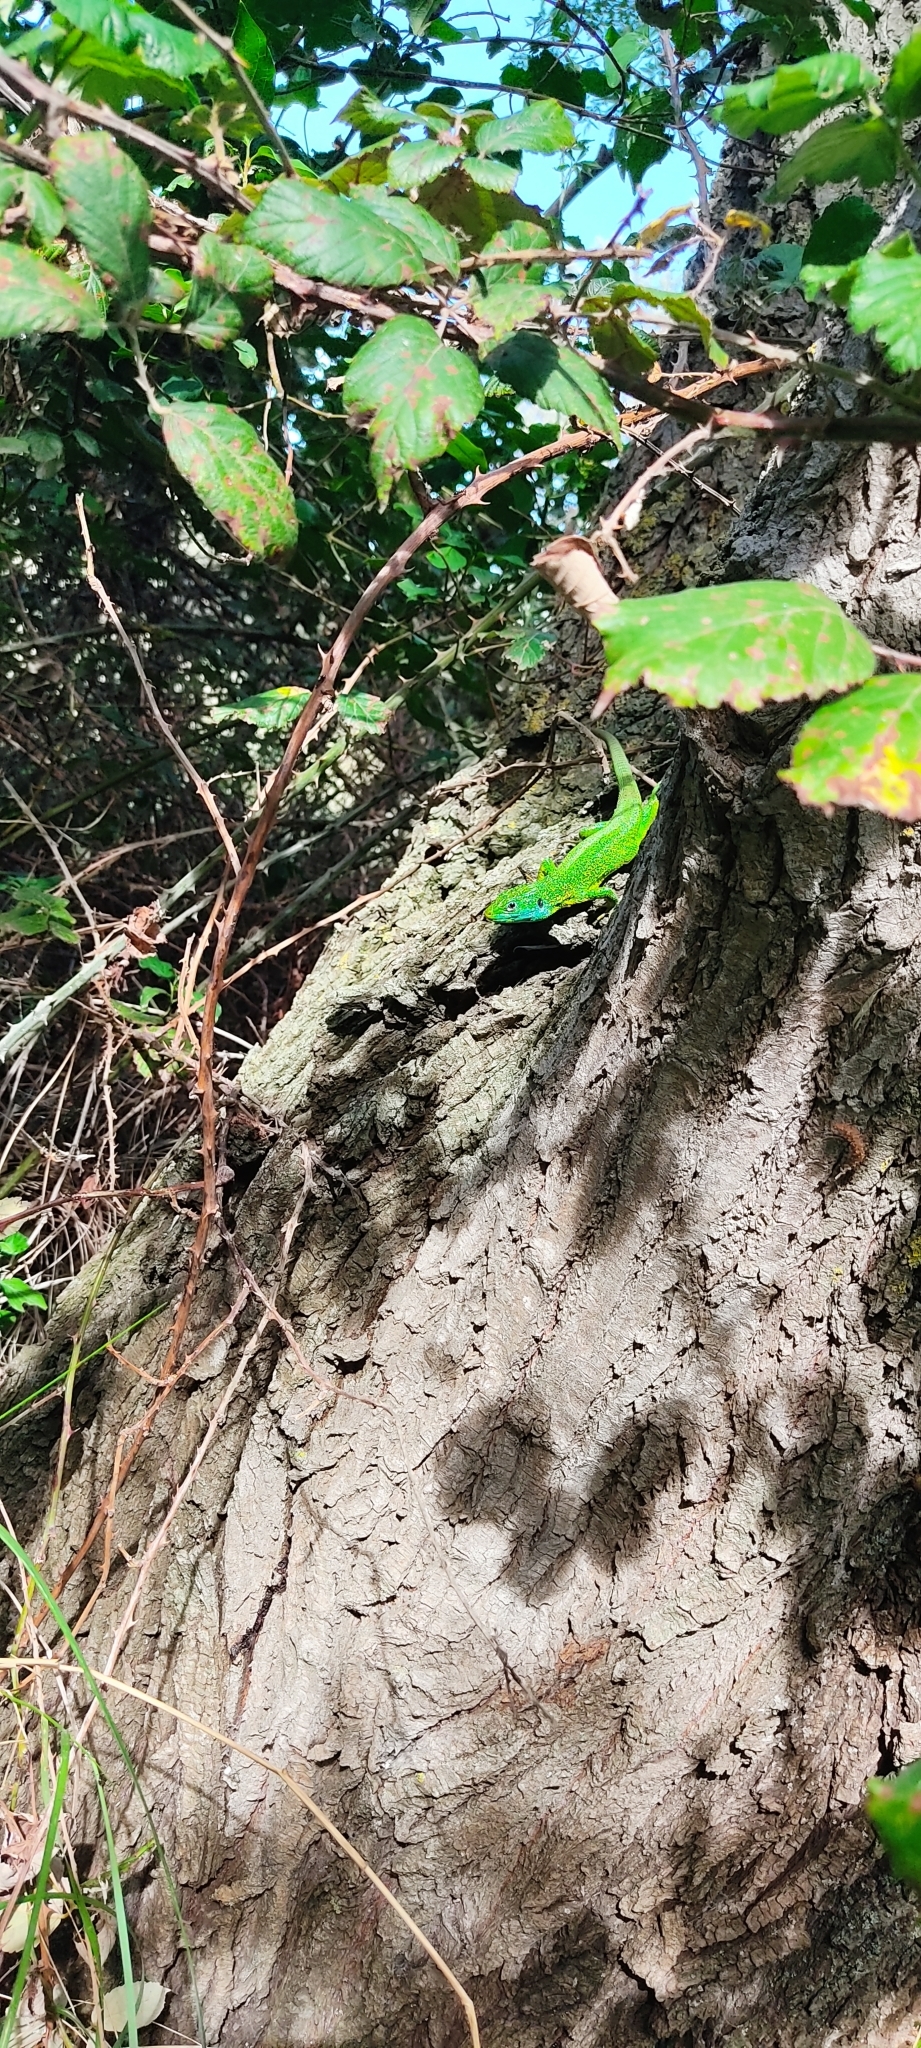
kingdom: Animalia
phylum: Chordata
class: Squamata
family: Lacertidae
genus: Lacerta
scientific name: Lacerta bilineata
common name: Western green lizard
